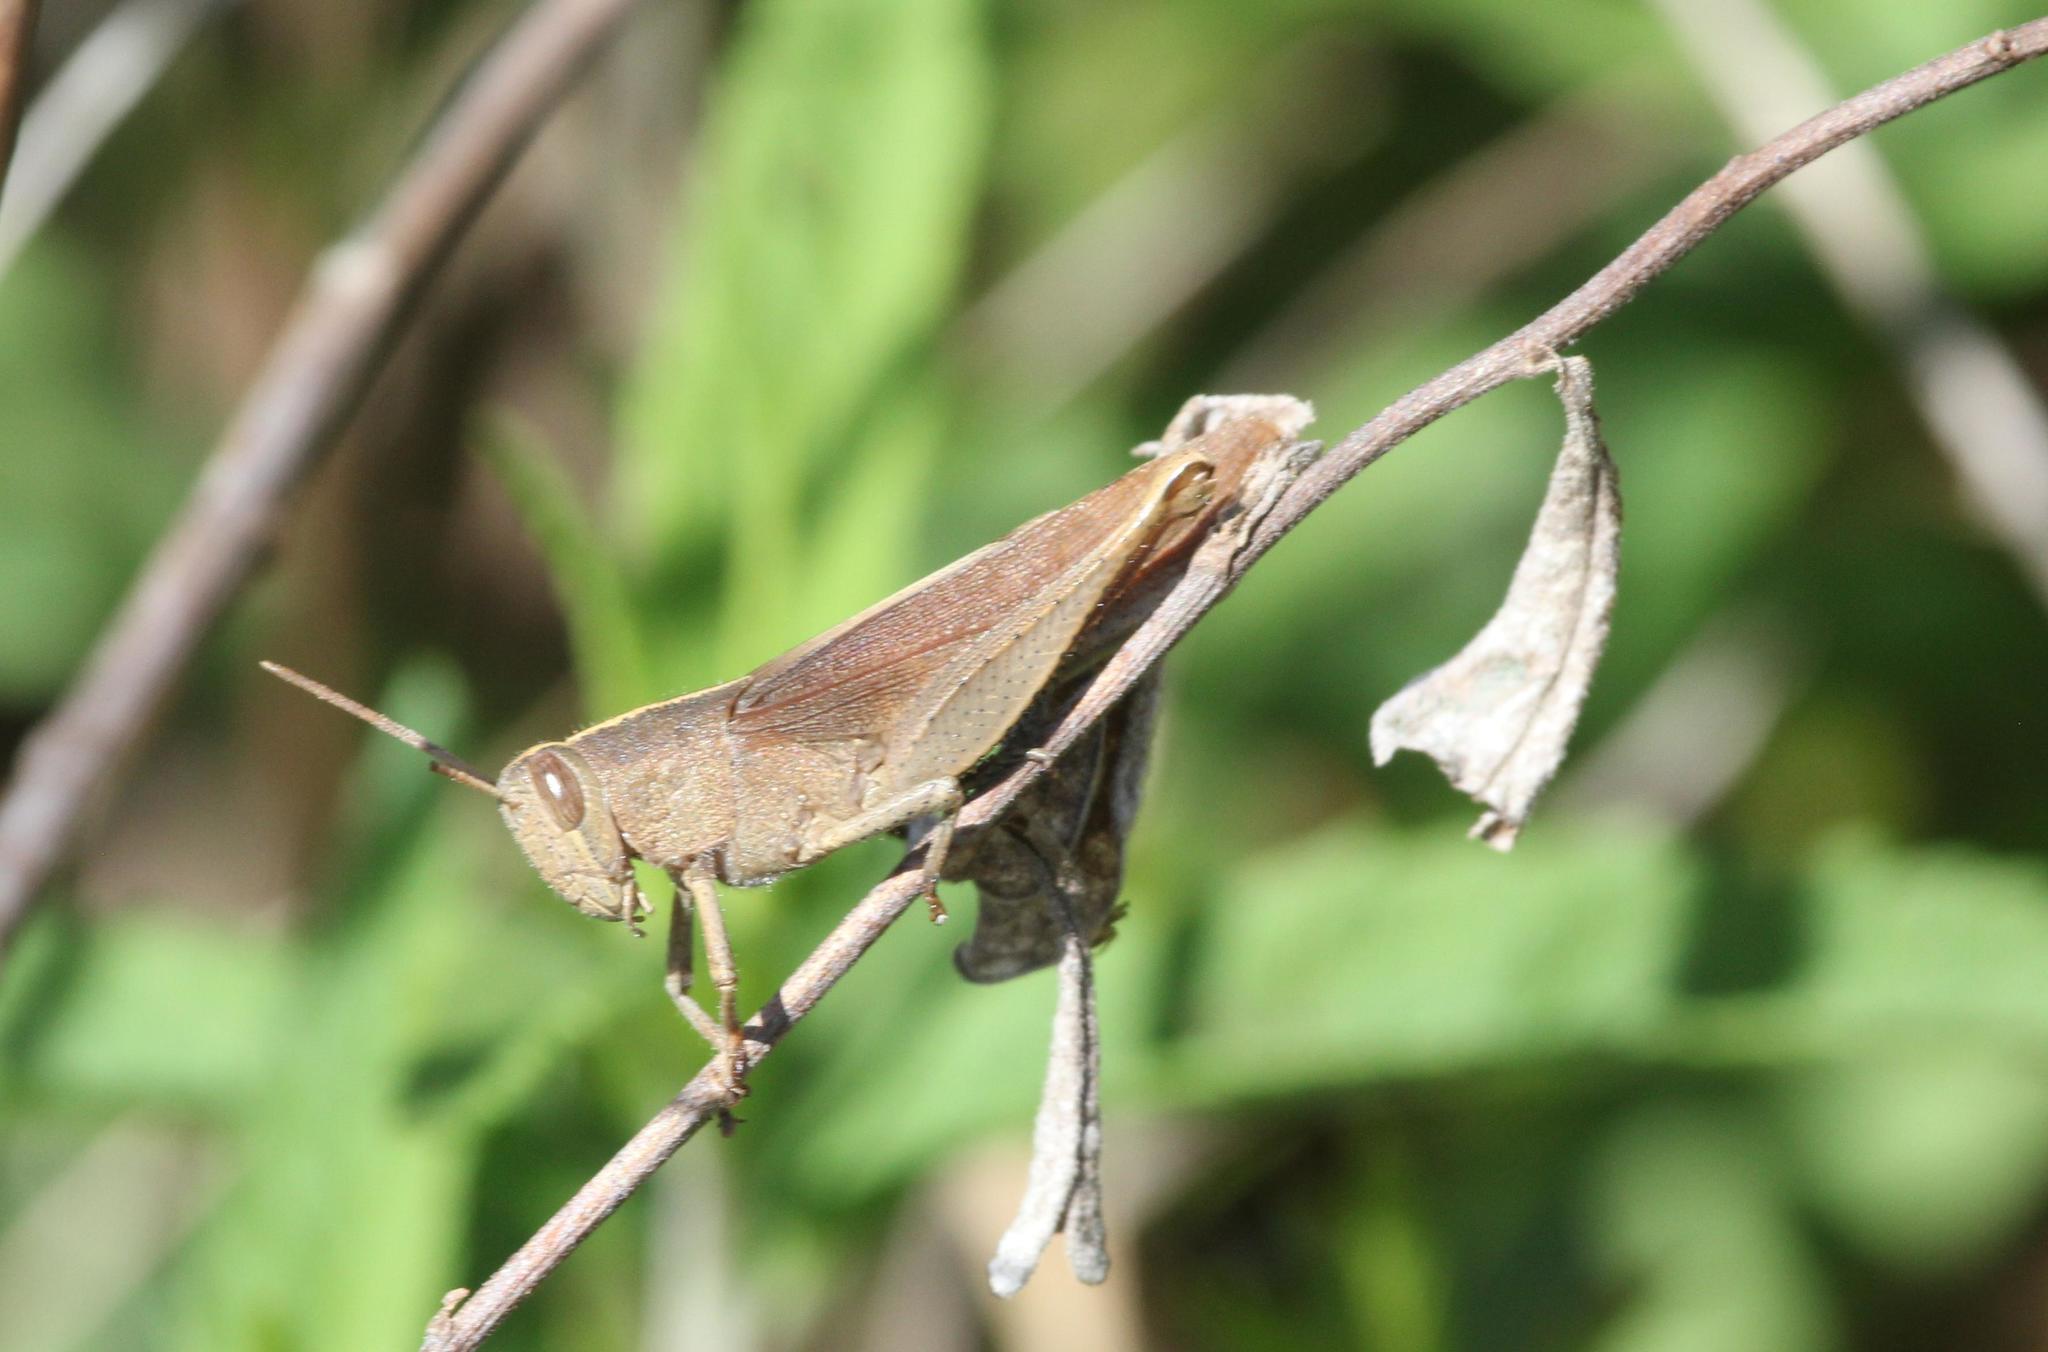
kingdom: Animalia
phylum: Arthropoda
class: Insecta
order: Orthoptera
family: Acrididae
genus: Schistocerca
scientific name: Schistocerca damnifica
